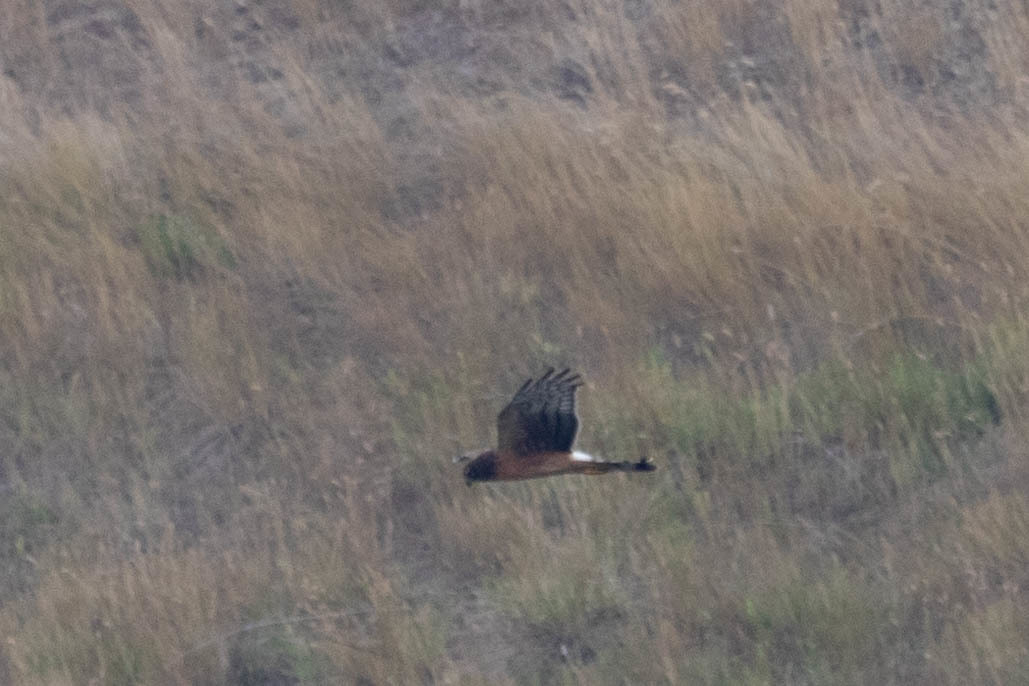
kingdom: Animalia
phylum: Chordata
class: Aves
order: Accipitriformes
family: Accipitridae
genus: Circus
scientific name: Circus cyaneus
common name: Hen harrier
